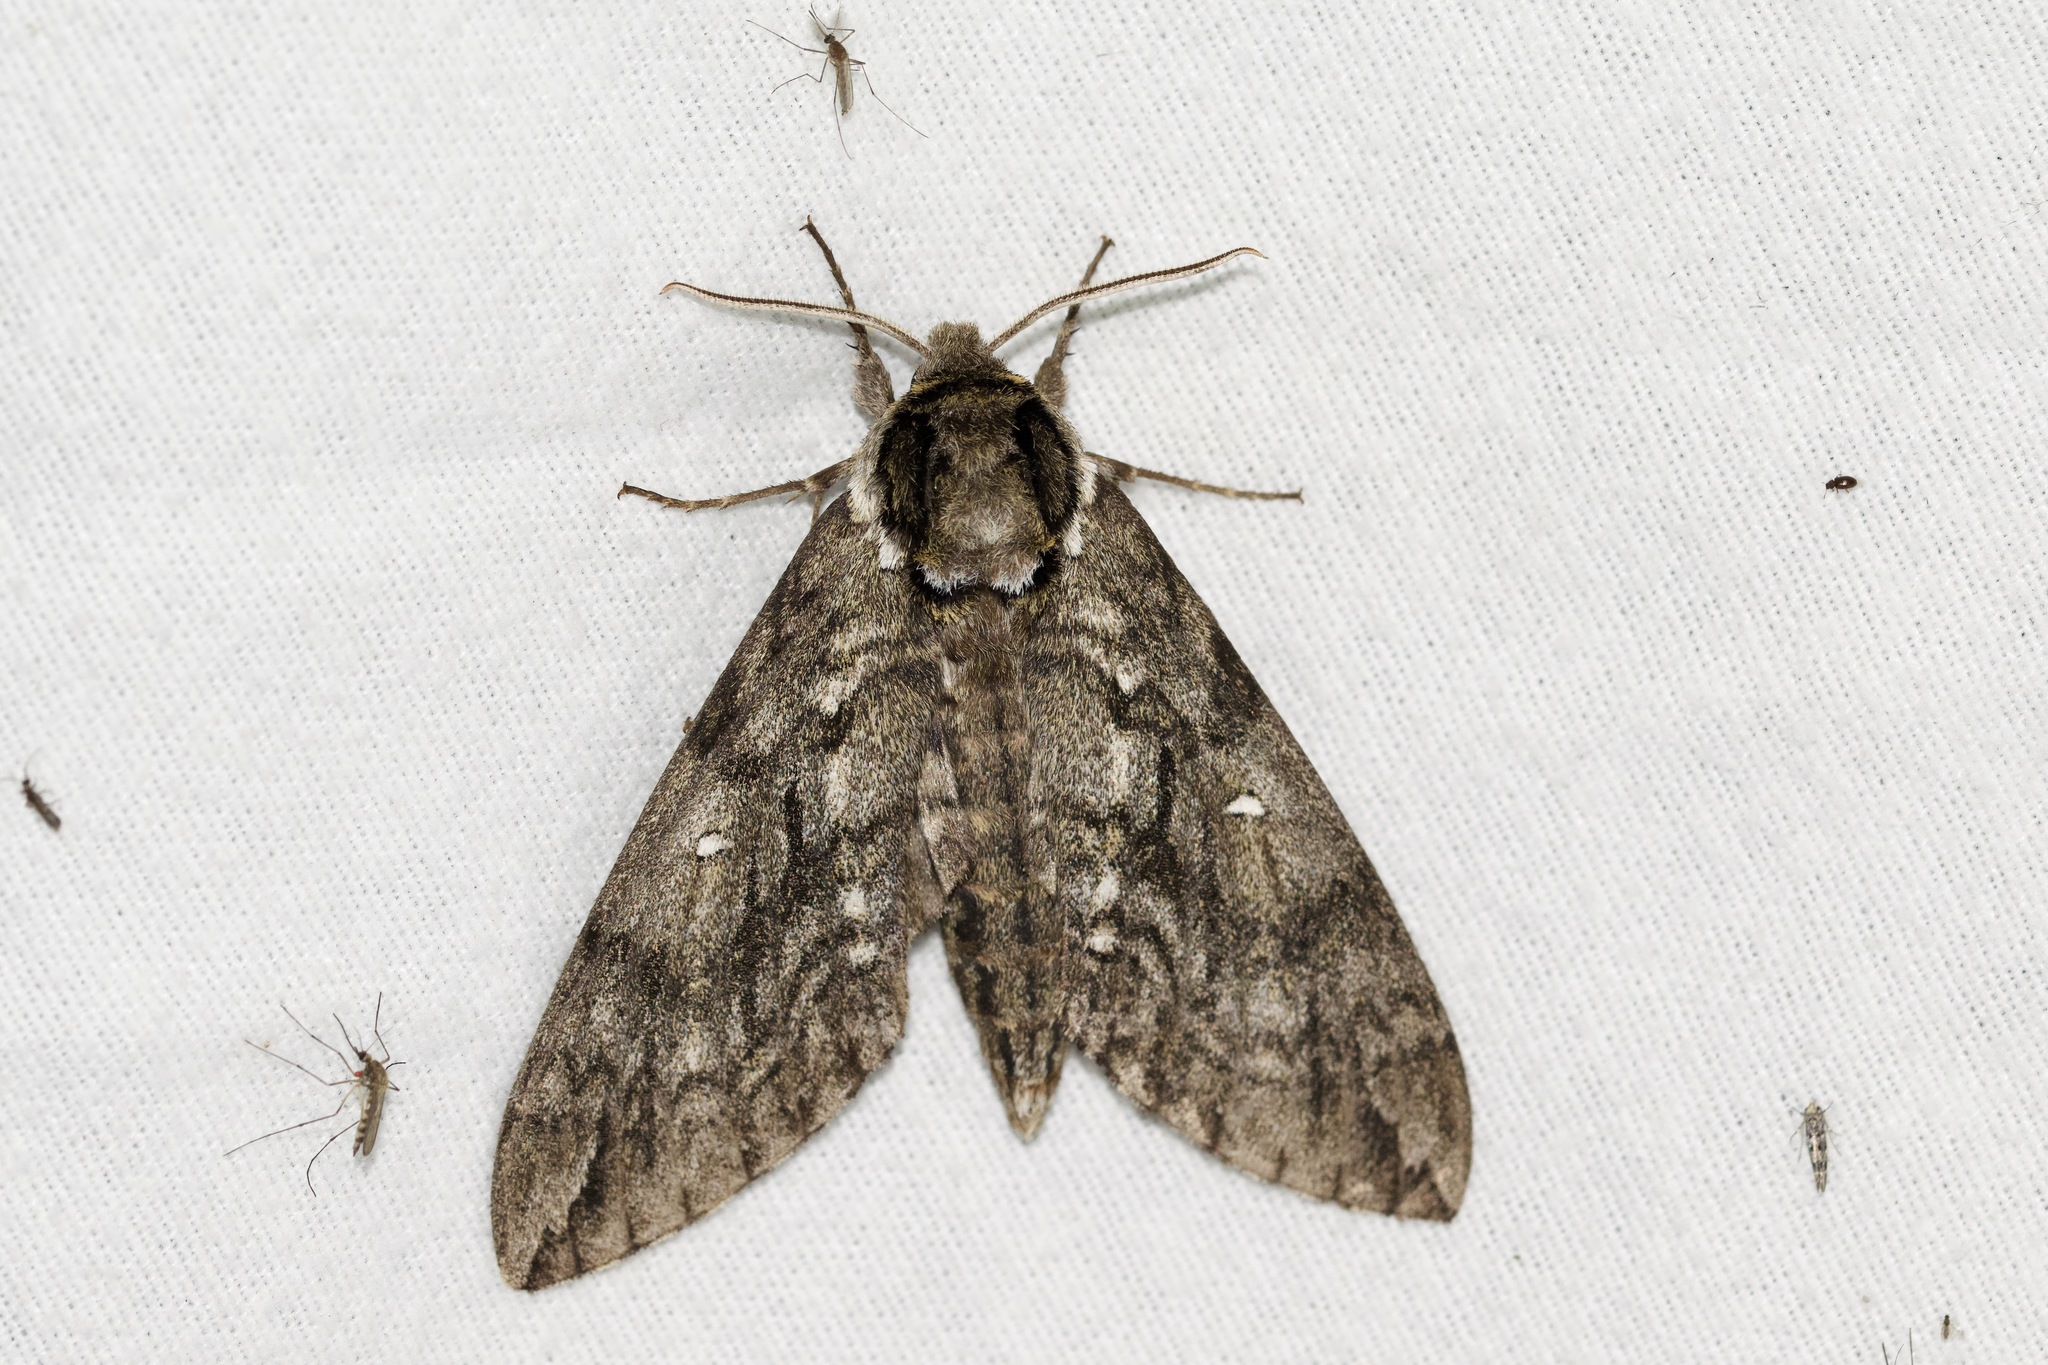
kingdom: Animalia
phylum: Arthropoda
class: Insecta
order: Lepidoptera
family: Sphingidae
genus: Ceratomia
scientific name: Ceratomia undulosa
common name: Waved sphinx
